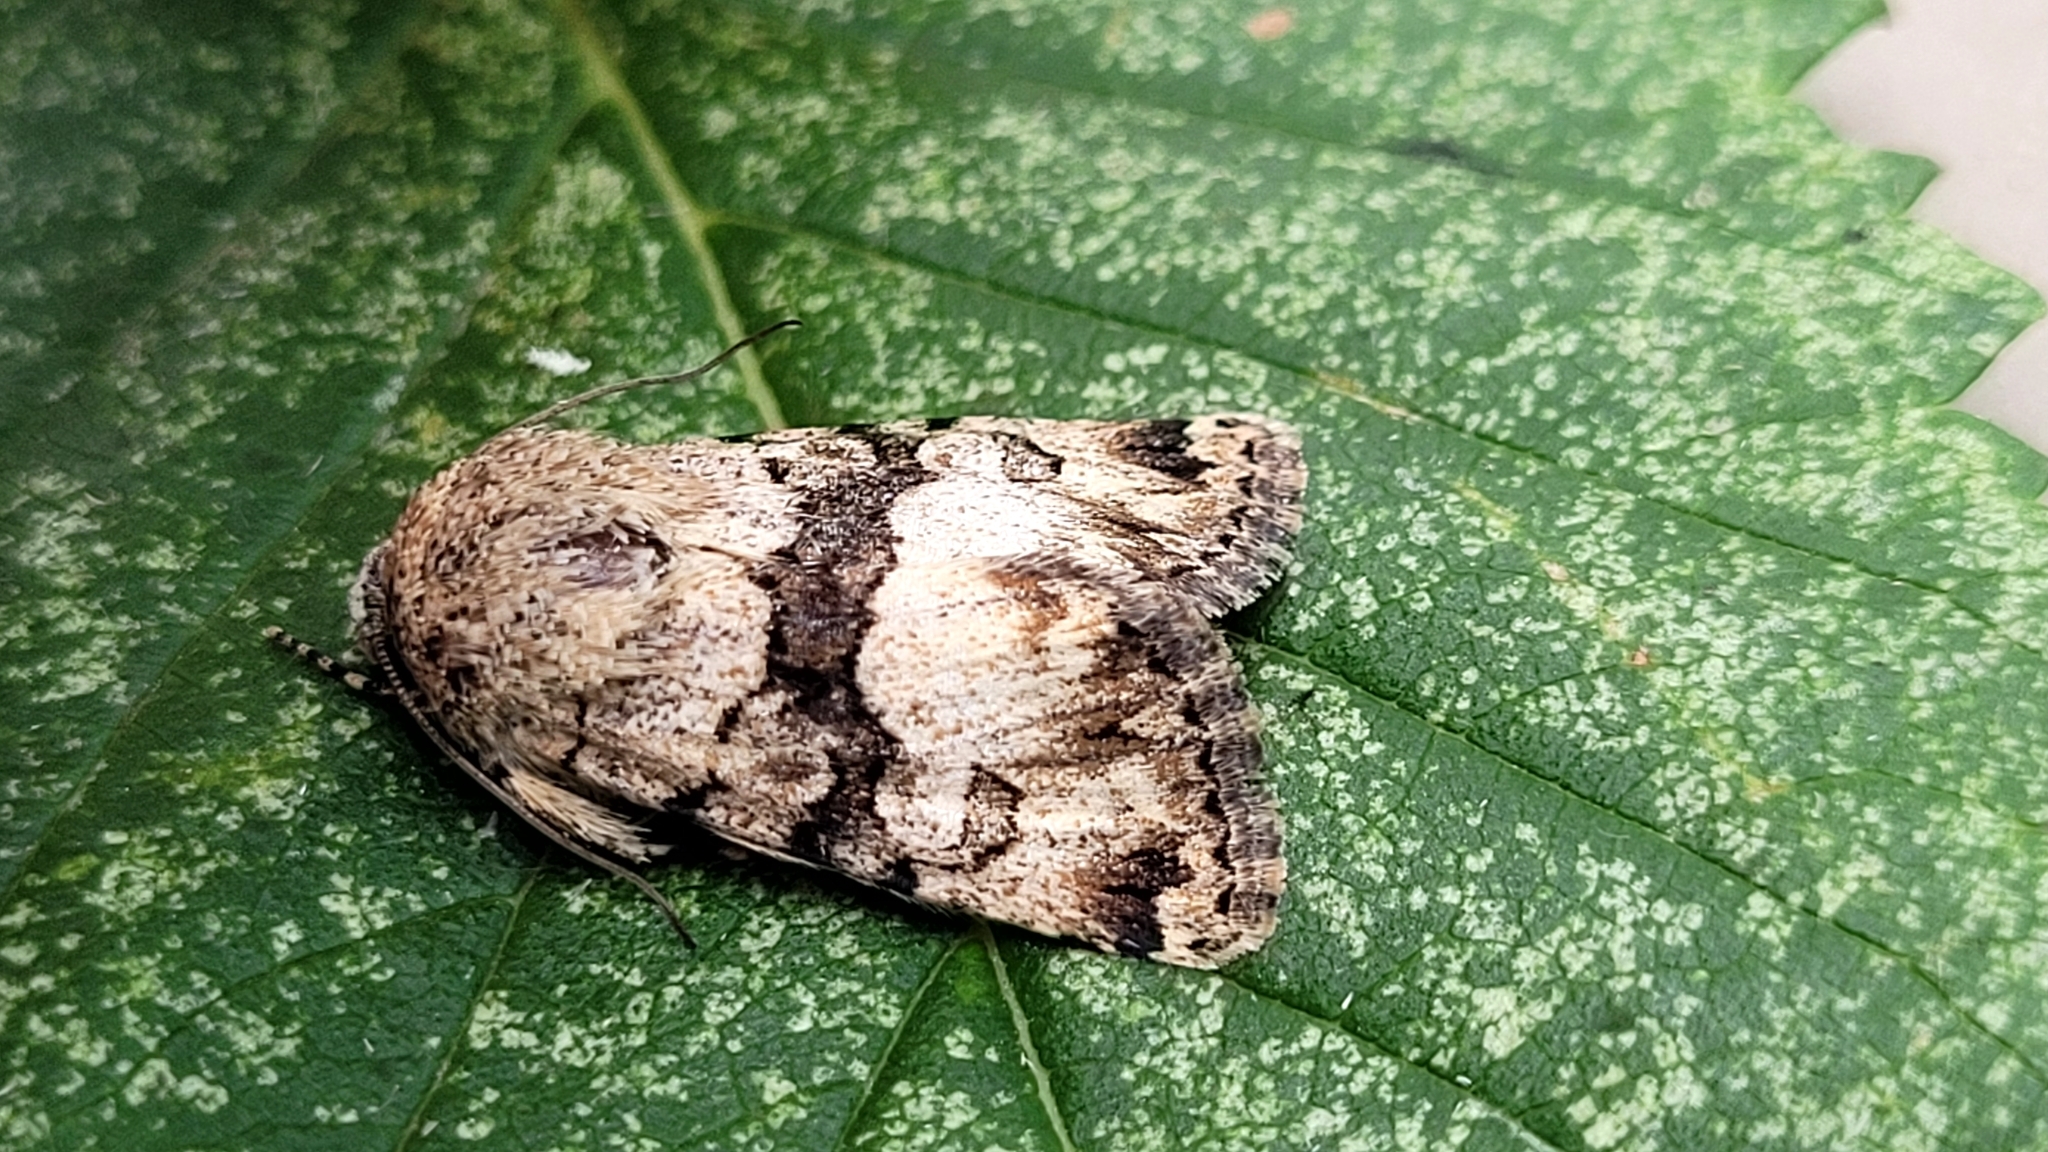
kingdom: Animalia
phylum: Arthropoda
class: Insecta
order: Lepidoptera
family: Noctuidae
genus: Sympistis
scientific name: Sympistis albifasciata
